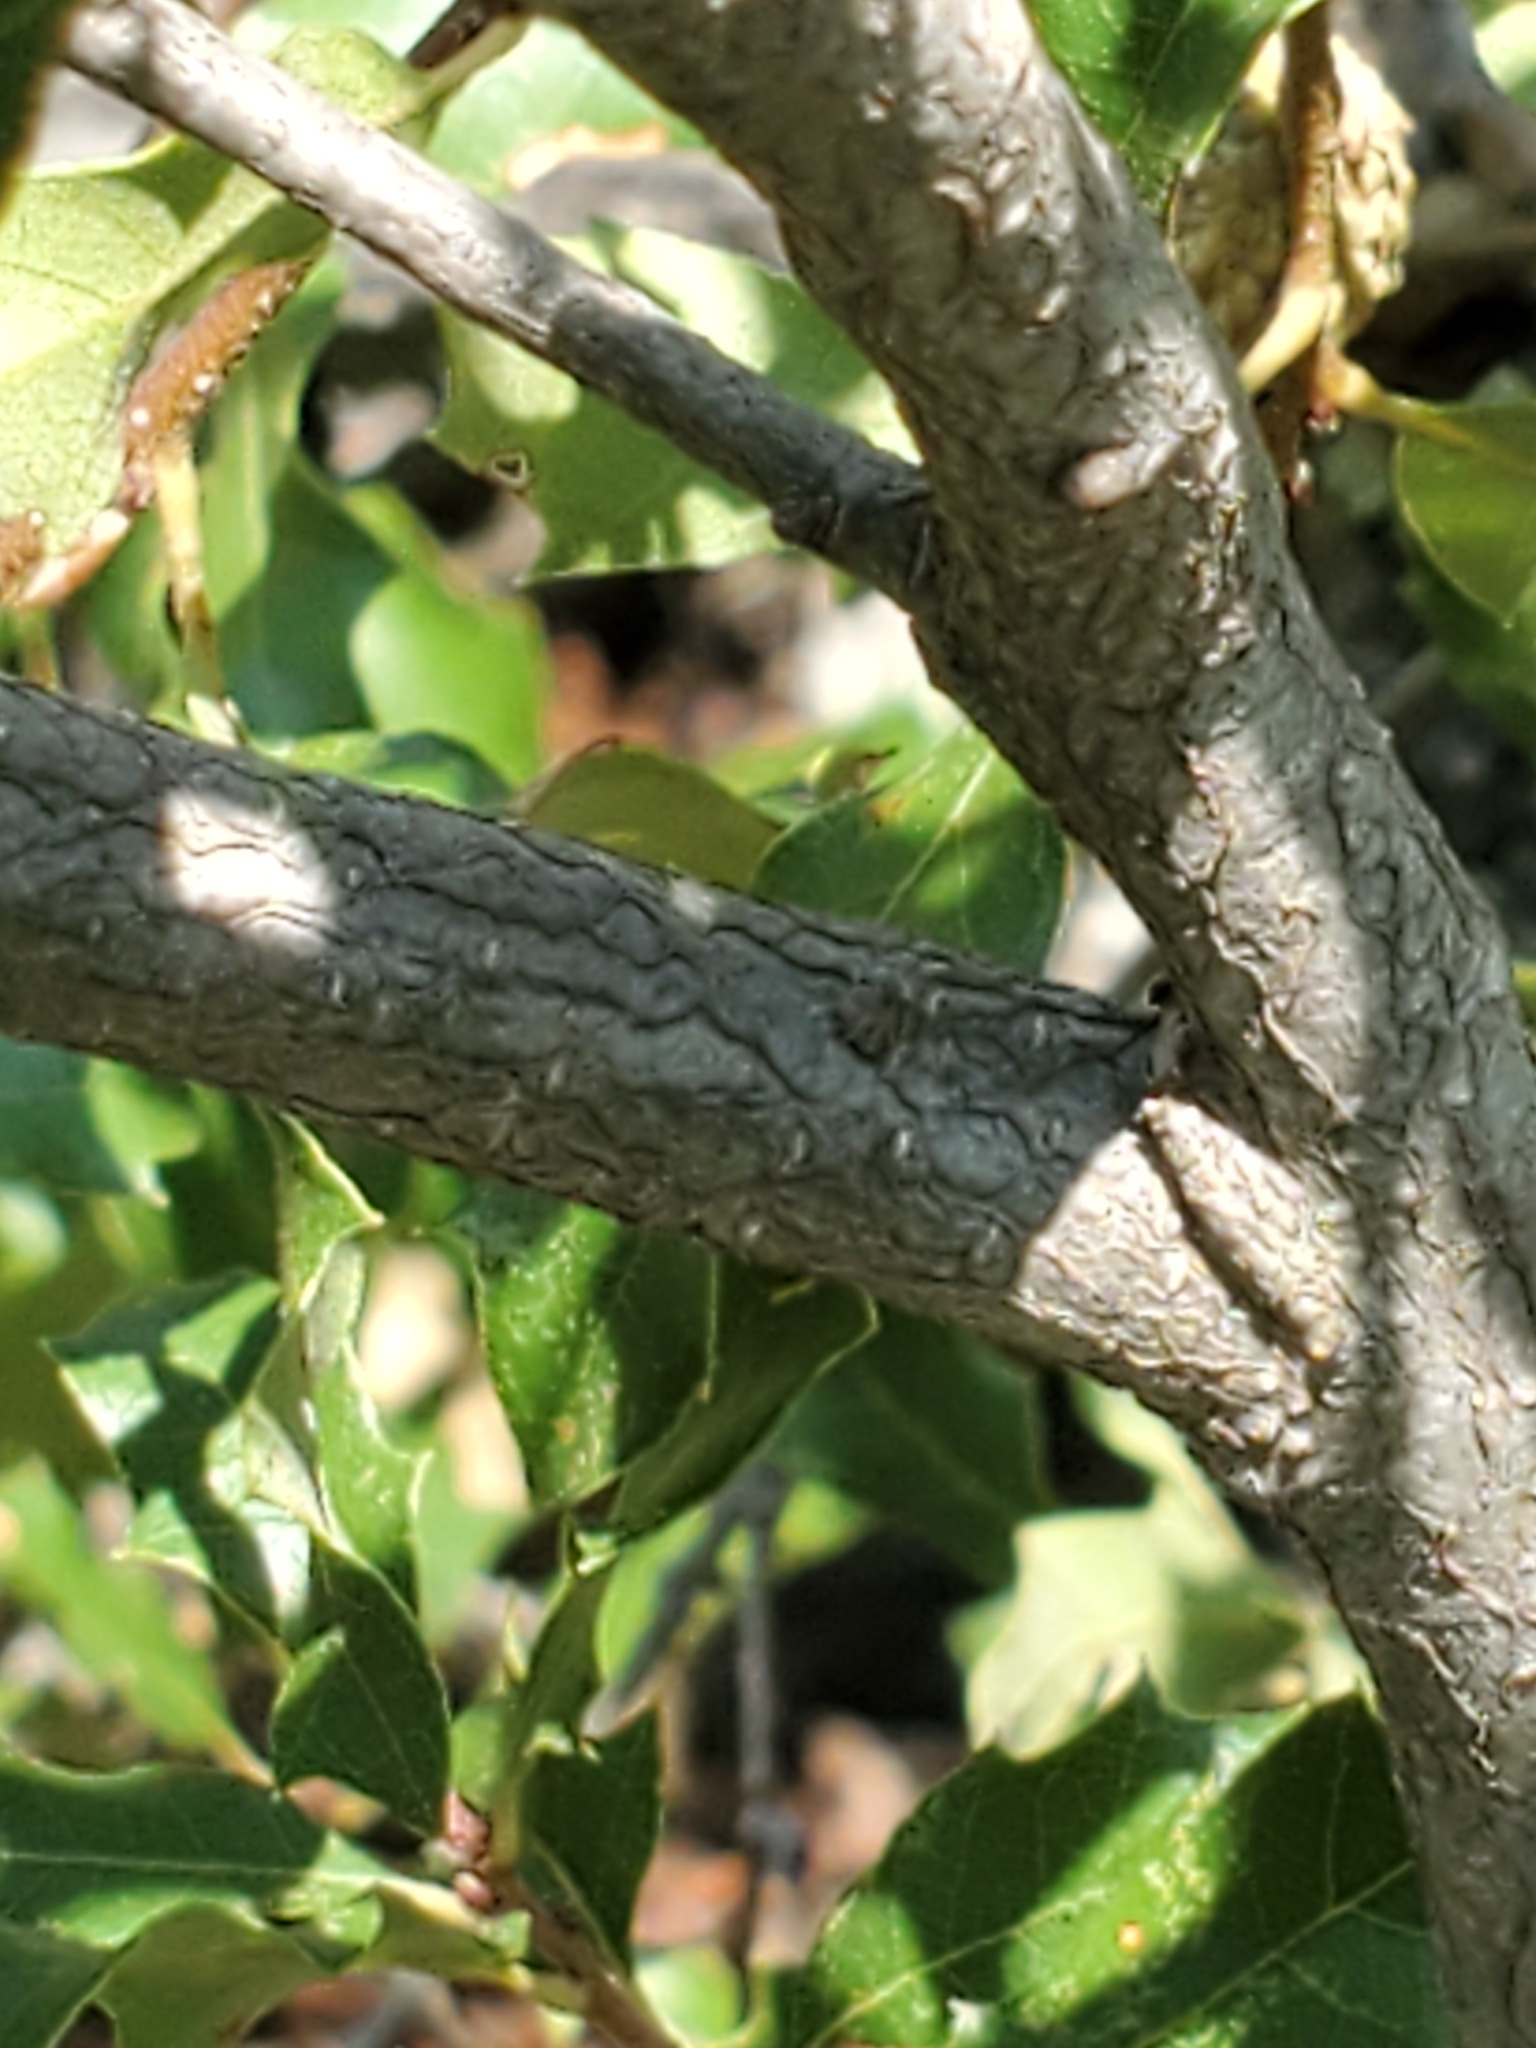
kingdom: Plantae
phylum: Tracheophyta
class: Magnoliopsida
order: Fagales
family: Fagaceae
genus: Quercus
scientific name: Quercus vaseyana
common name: Sandpaper oak
